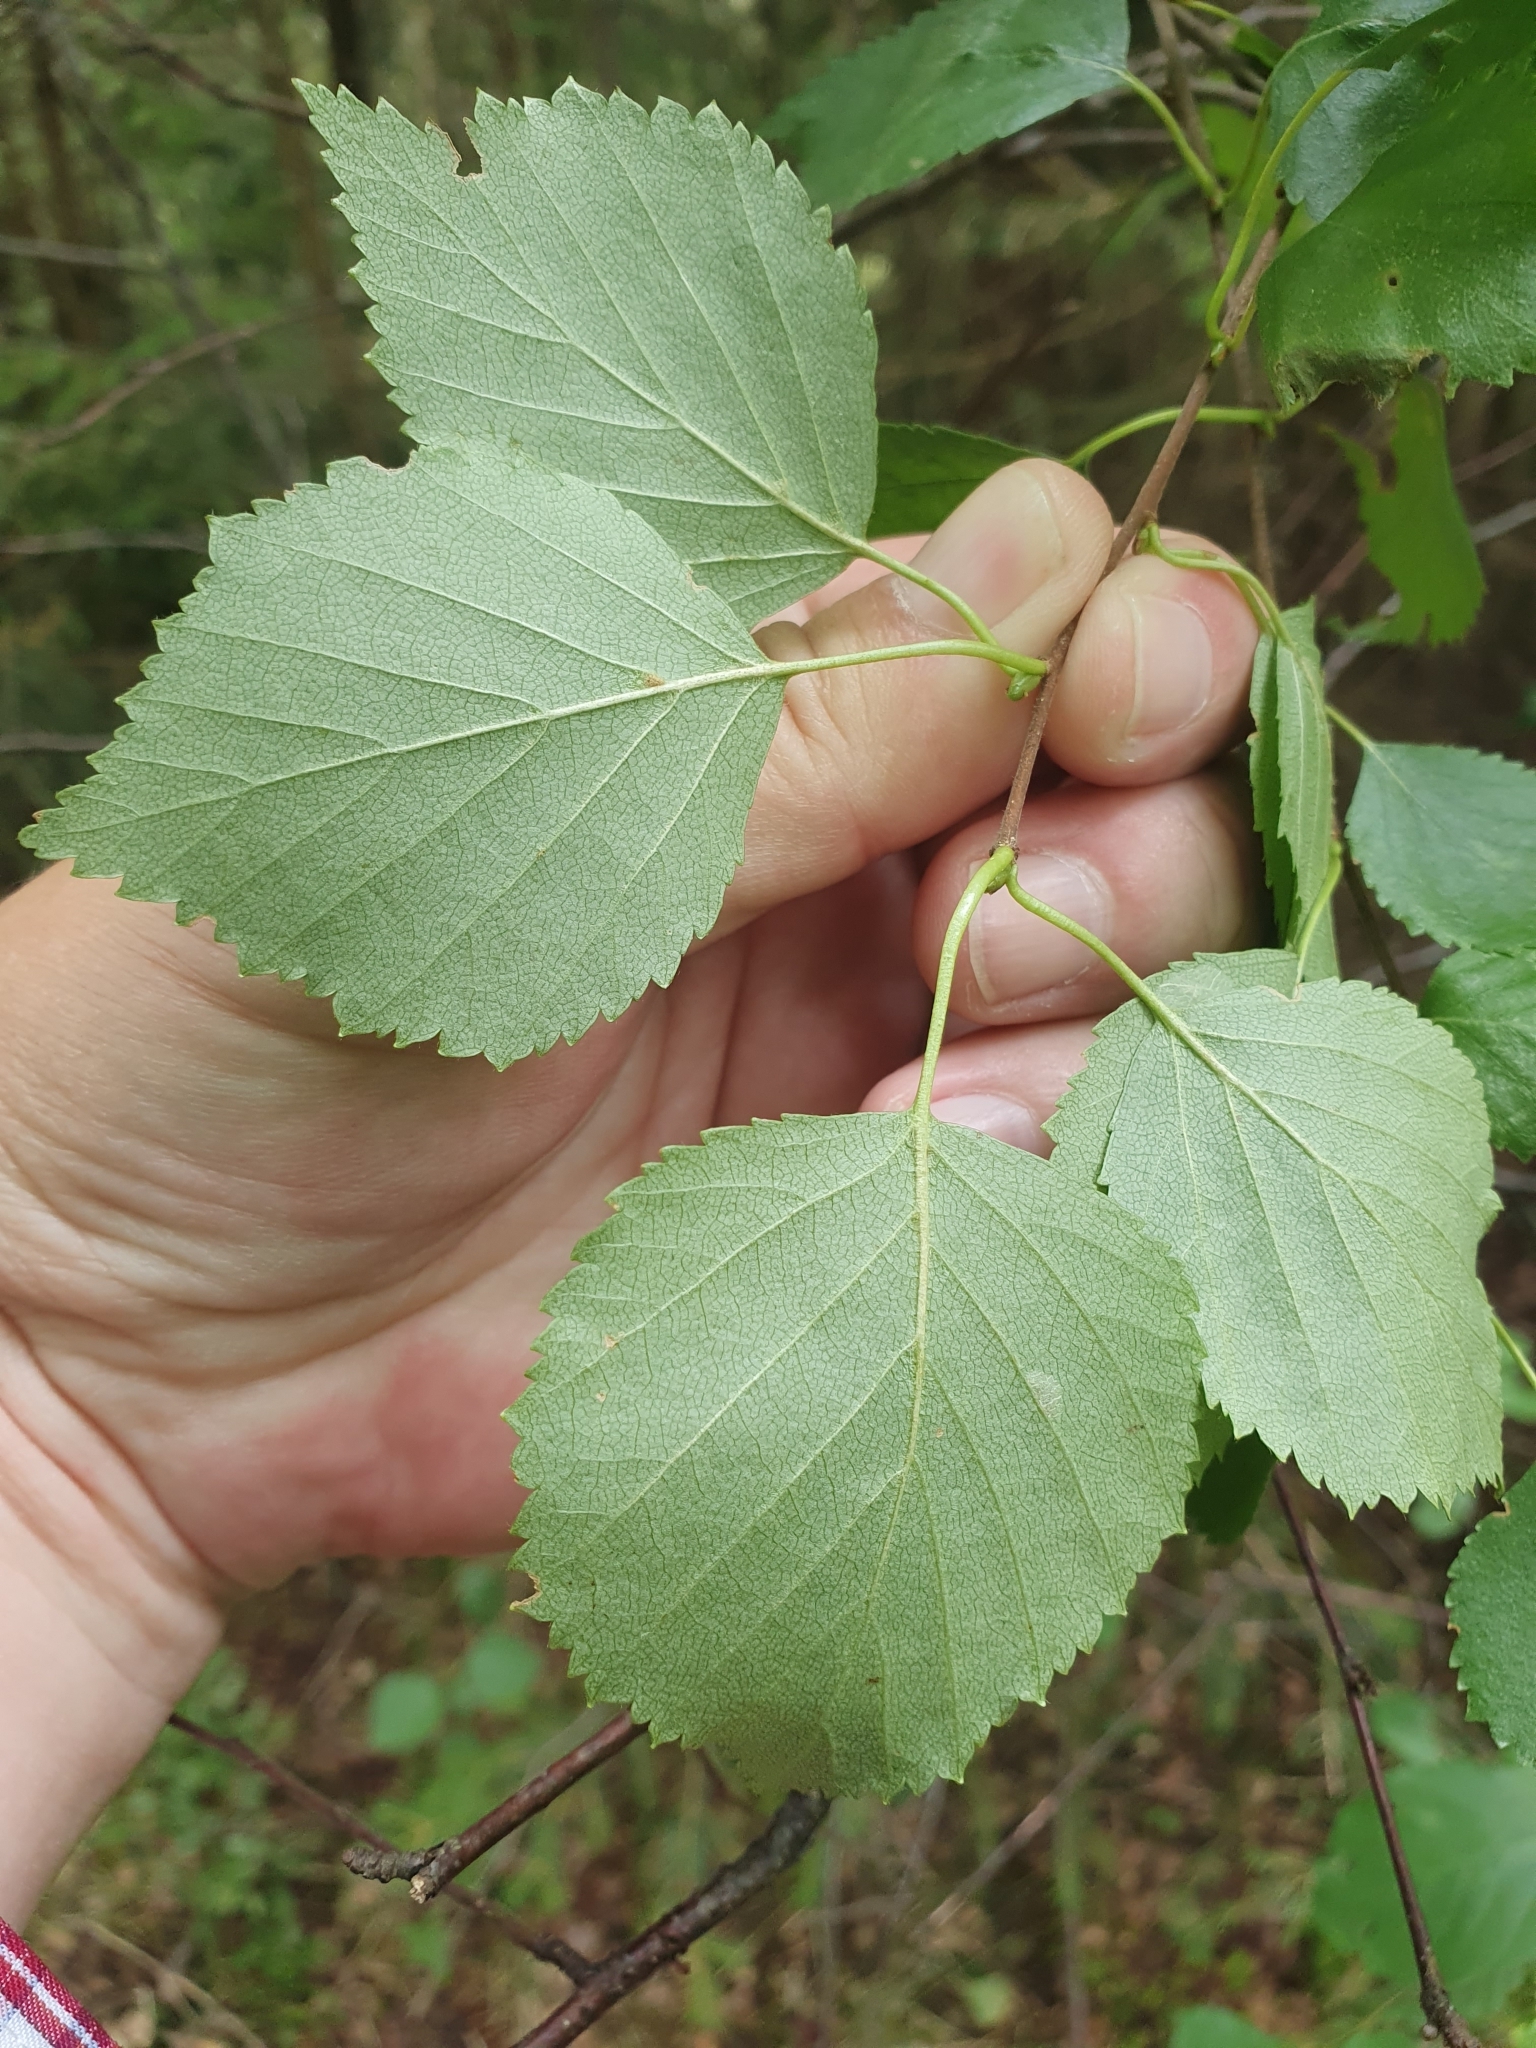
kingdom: Plantae
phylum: Tracheophyta
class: Magnoliopsida
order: Fagales
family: Betulaceae
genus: Betula
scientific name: Betula pubescens
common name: Downy birch
